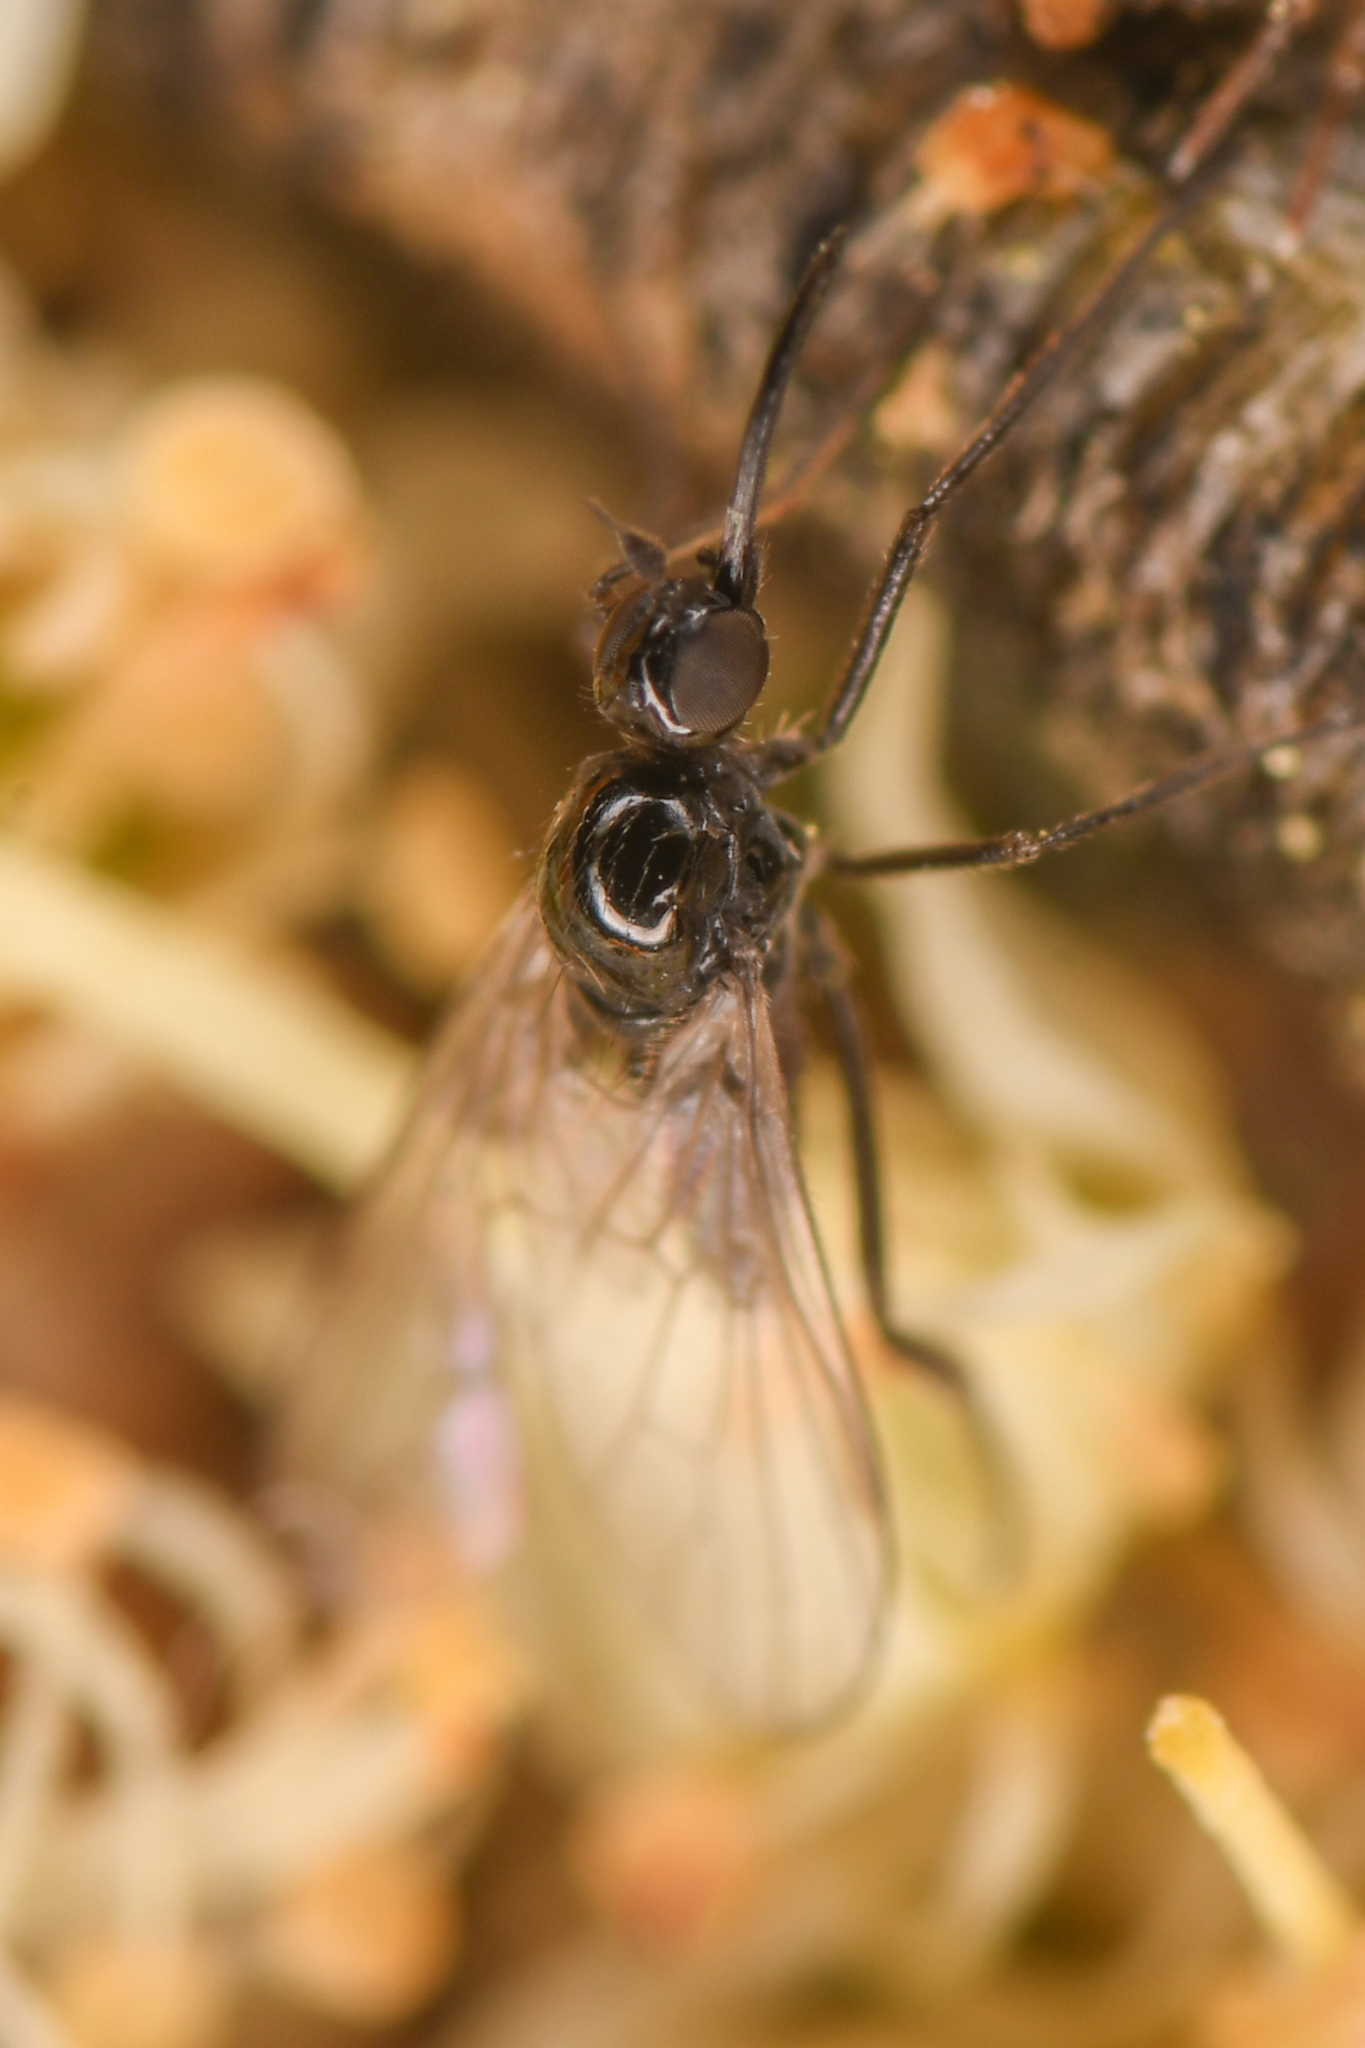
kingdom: Animalia
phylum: Arthropoda
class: Insecta
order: Diptera
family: Atelestidae
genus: Meghyperus
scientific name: Meghyperus occidens
